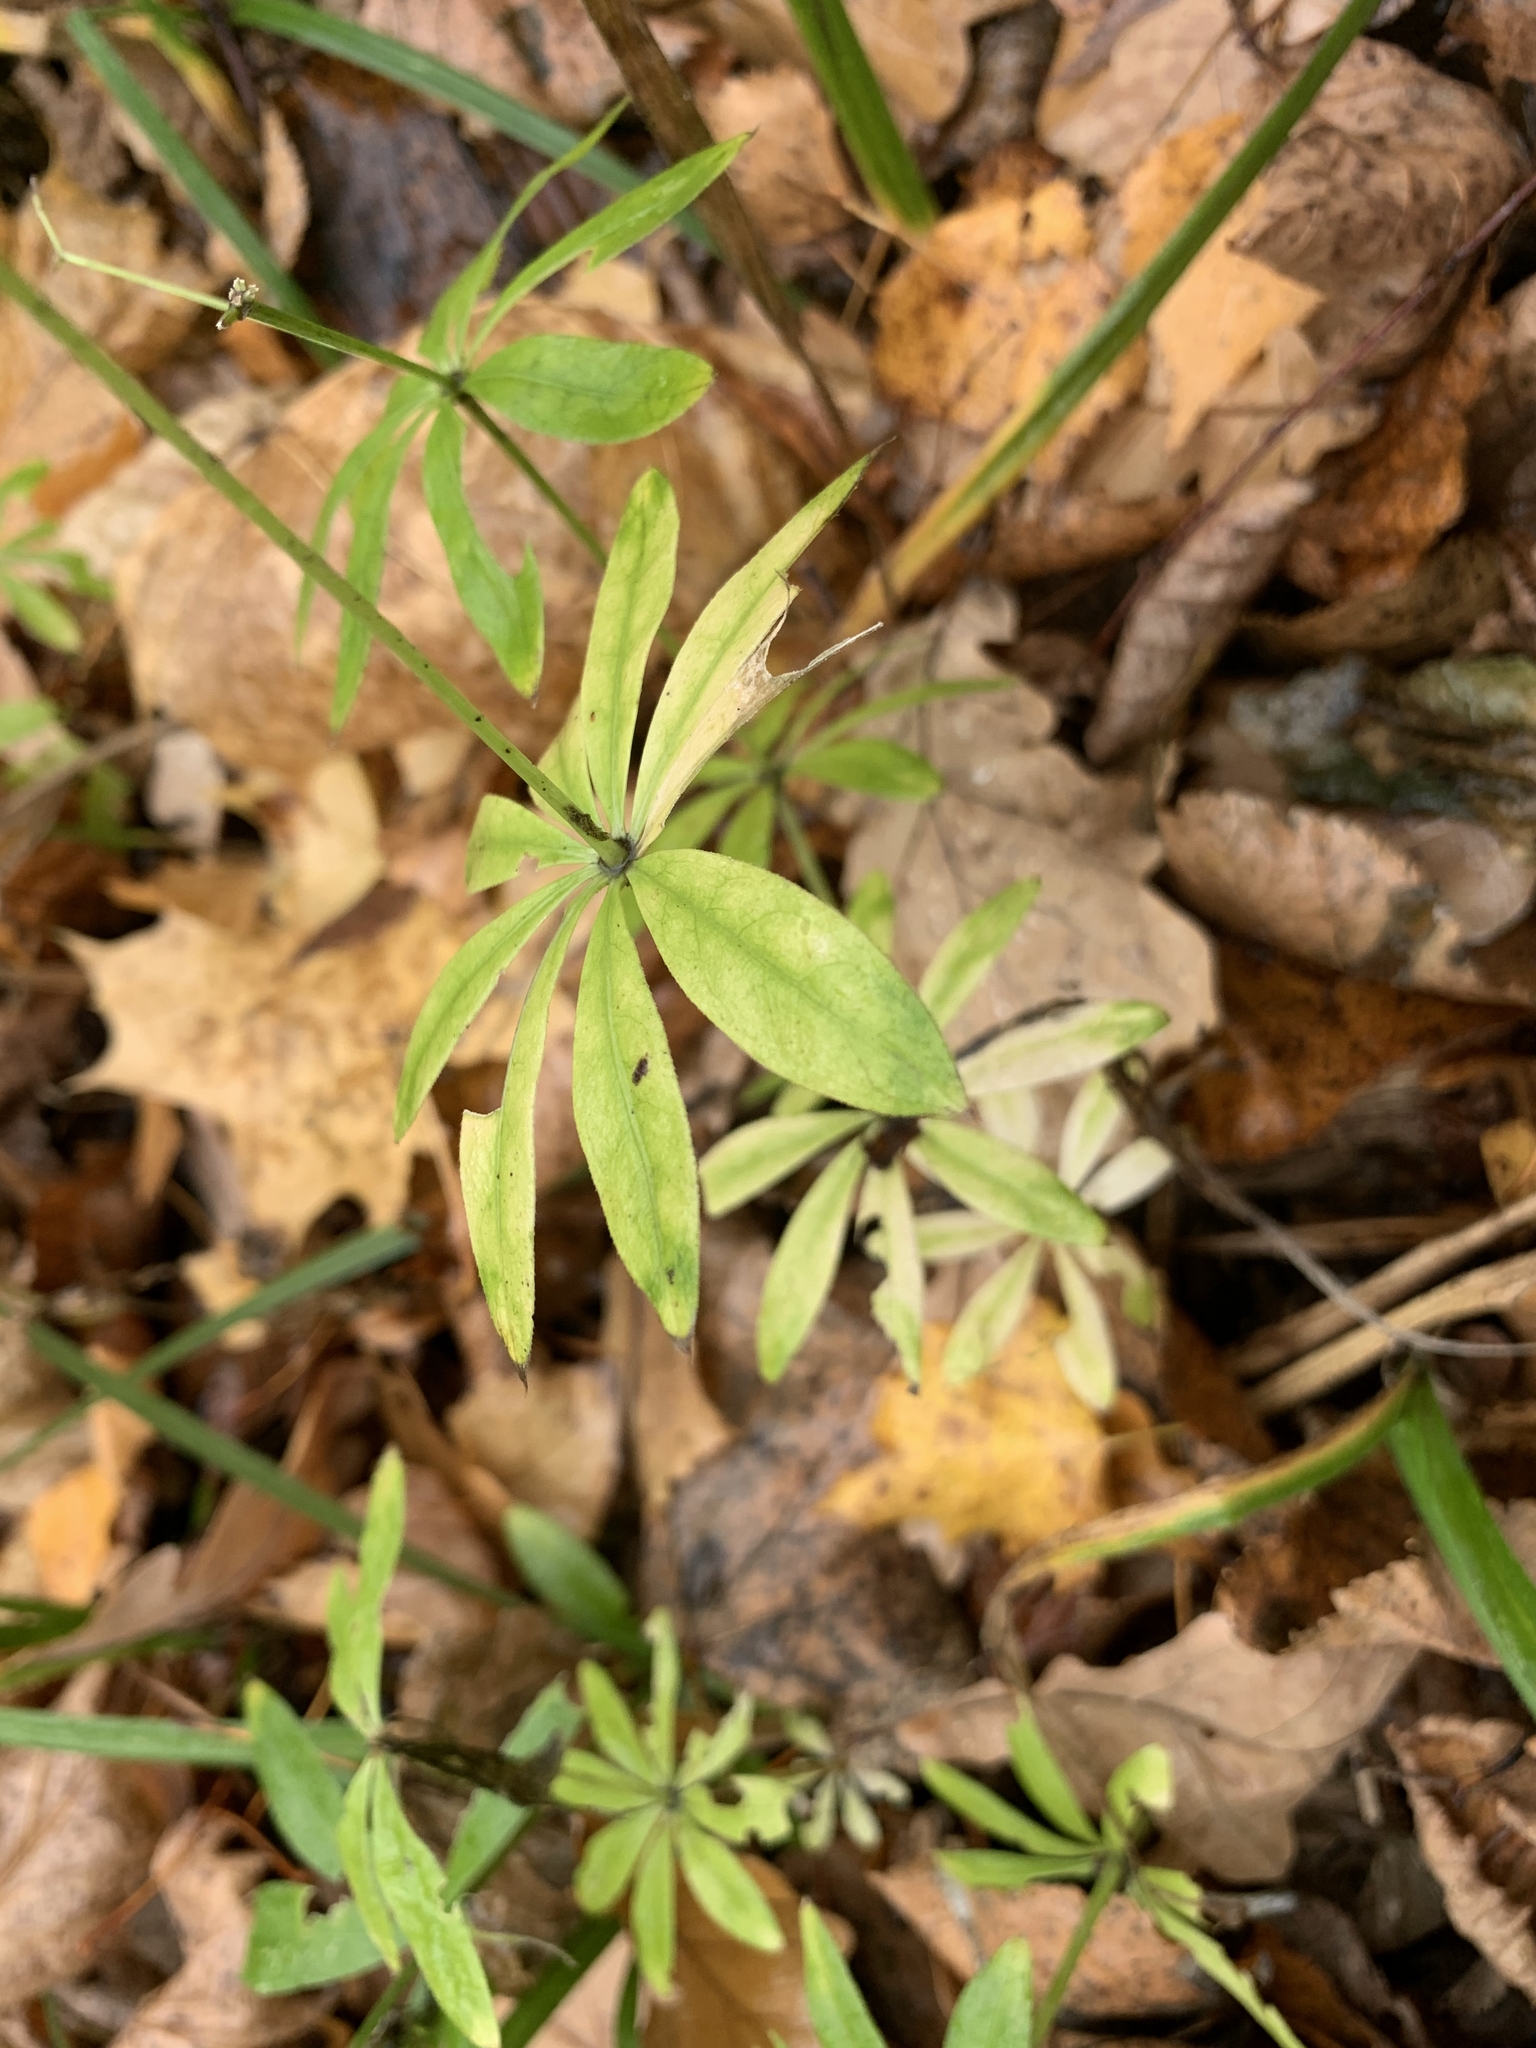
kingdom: Plantae
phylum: Tracheophyta
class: Magnoliopsida
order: Gentianales
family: Rubiaceae
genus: Galium
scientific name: Galium odoratum
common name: Sweet woodruff
